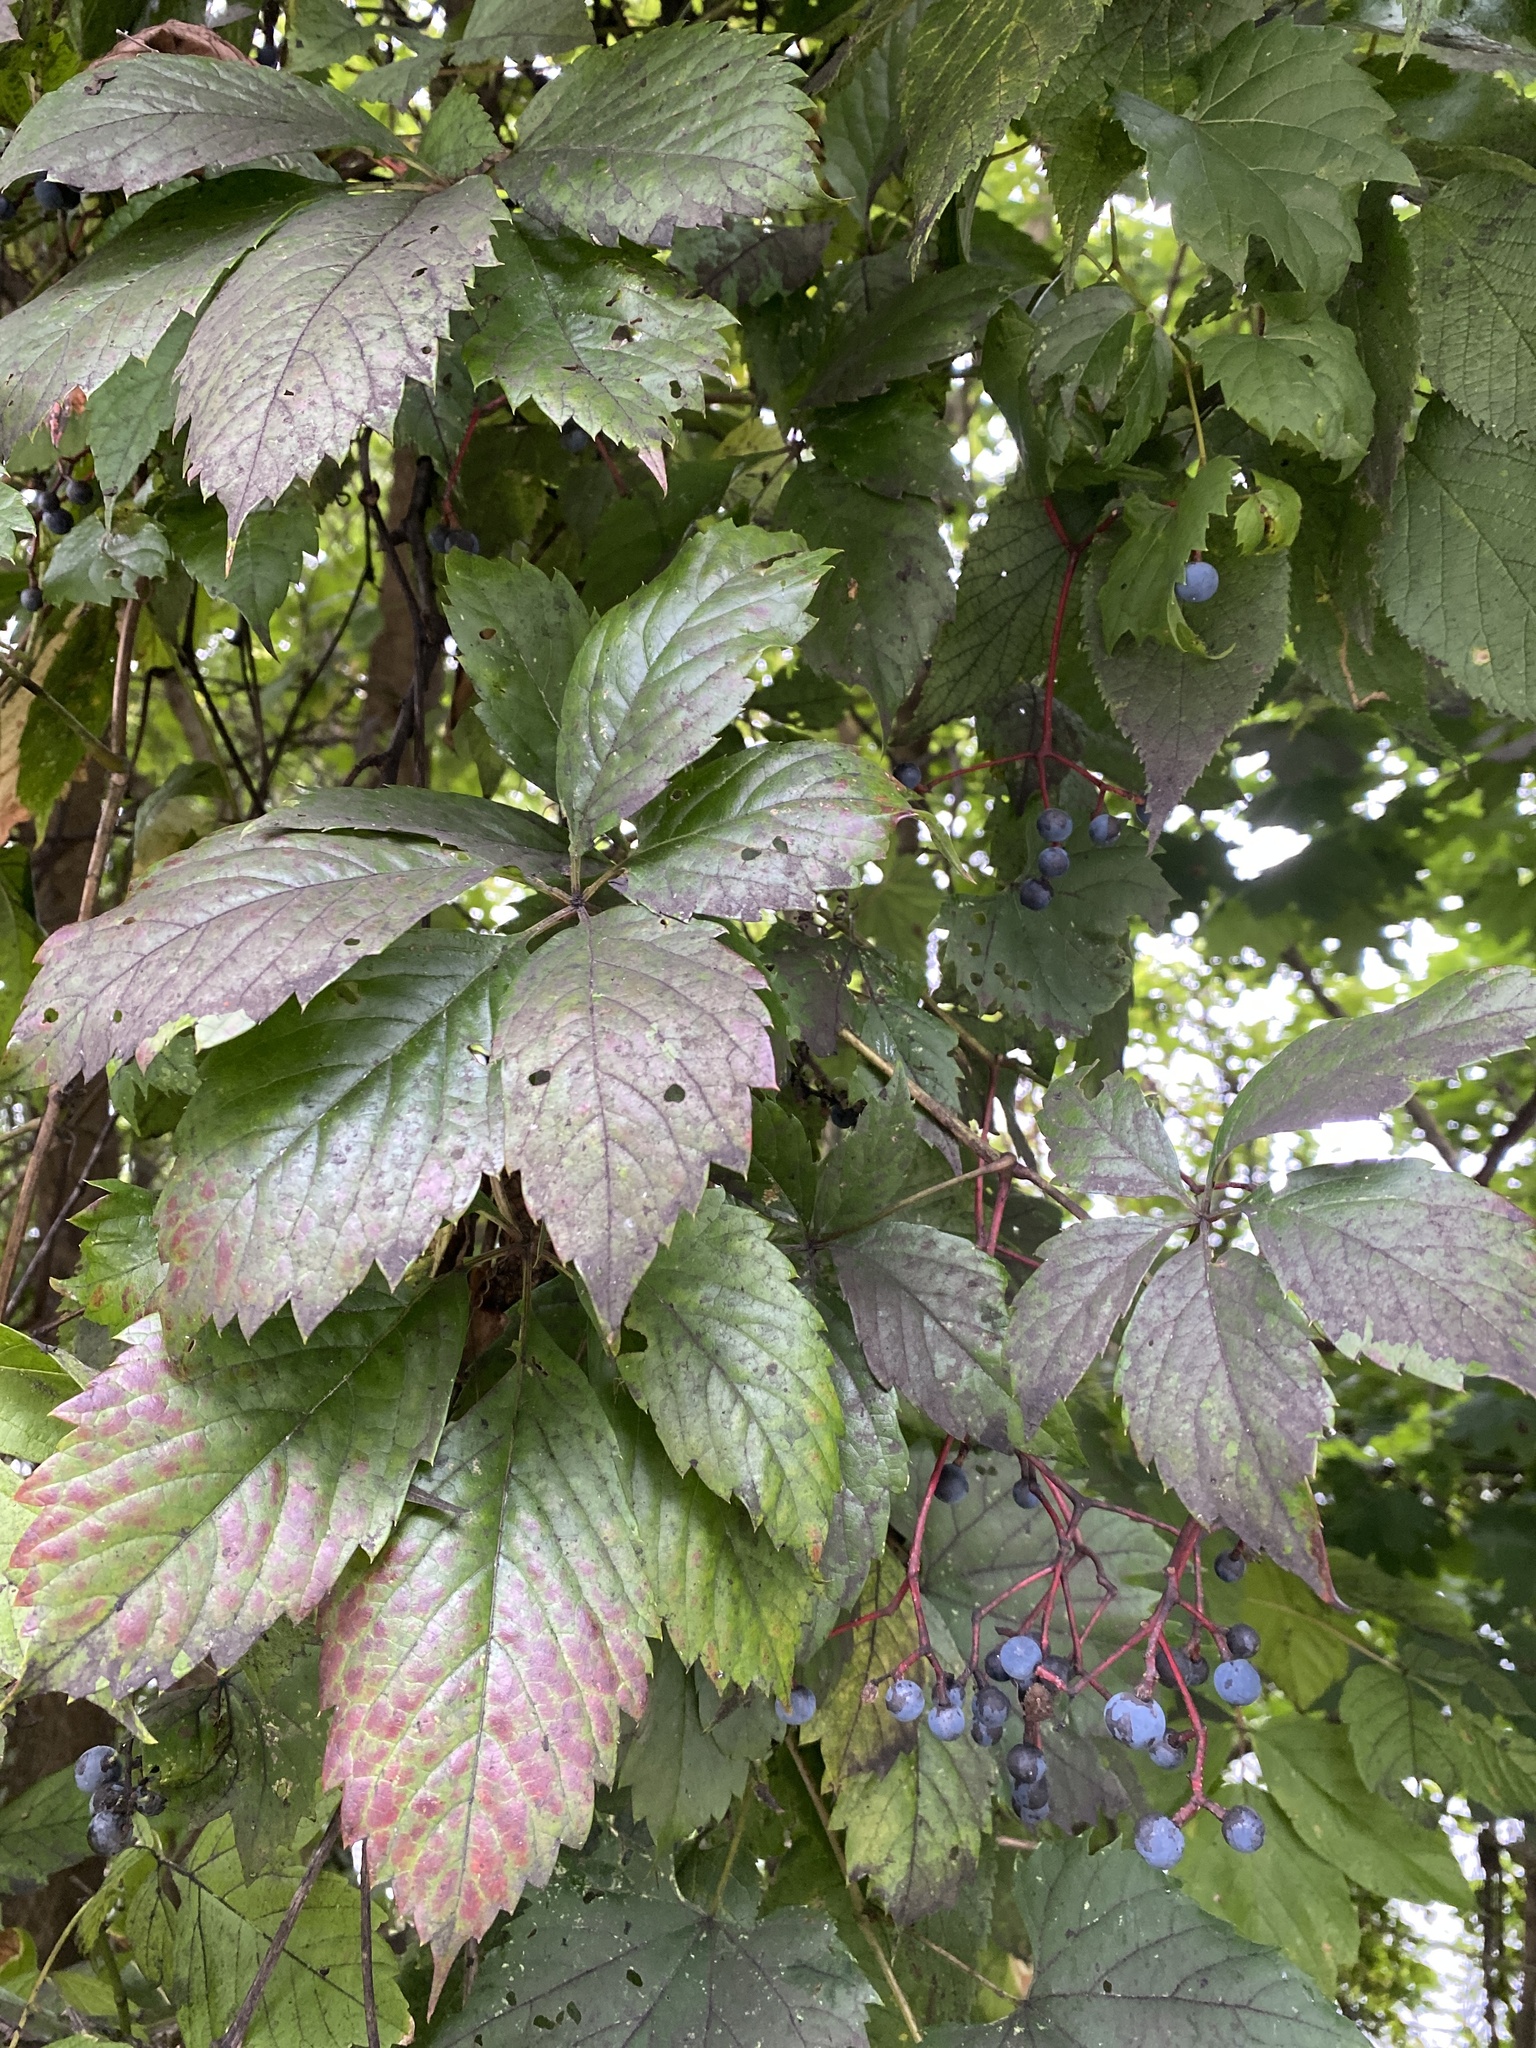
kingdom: Plantae
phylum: Tracheophyta
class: Magnoliopsida
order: Vitales
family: Vitaceae
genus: Parthenocissus
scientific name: Parthenocissus inserta
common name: False virginia-creeper
